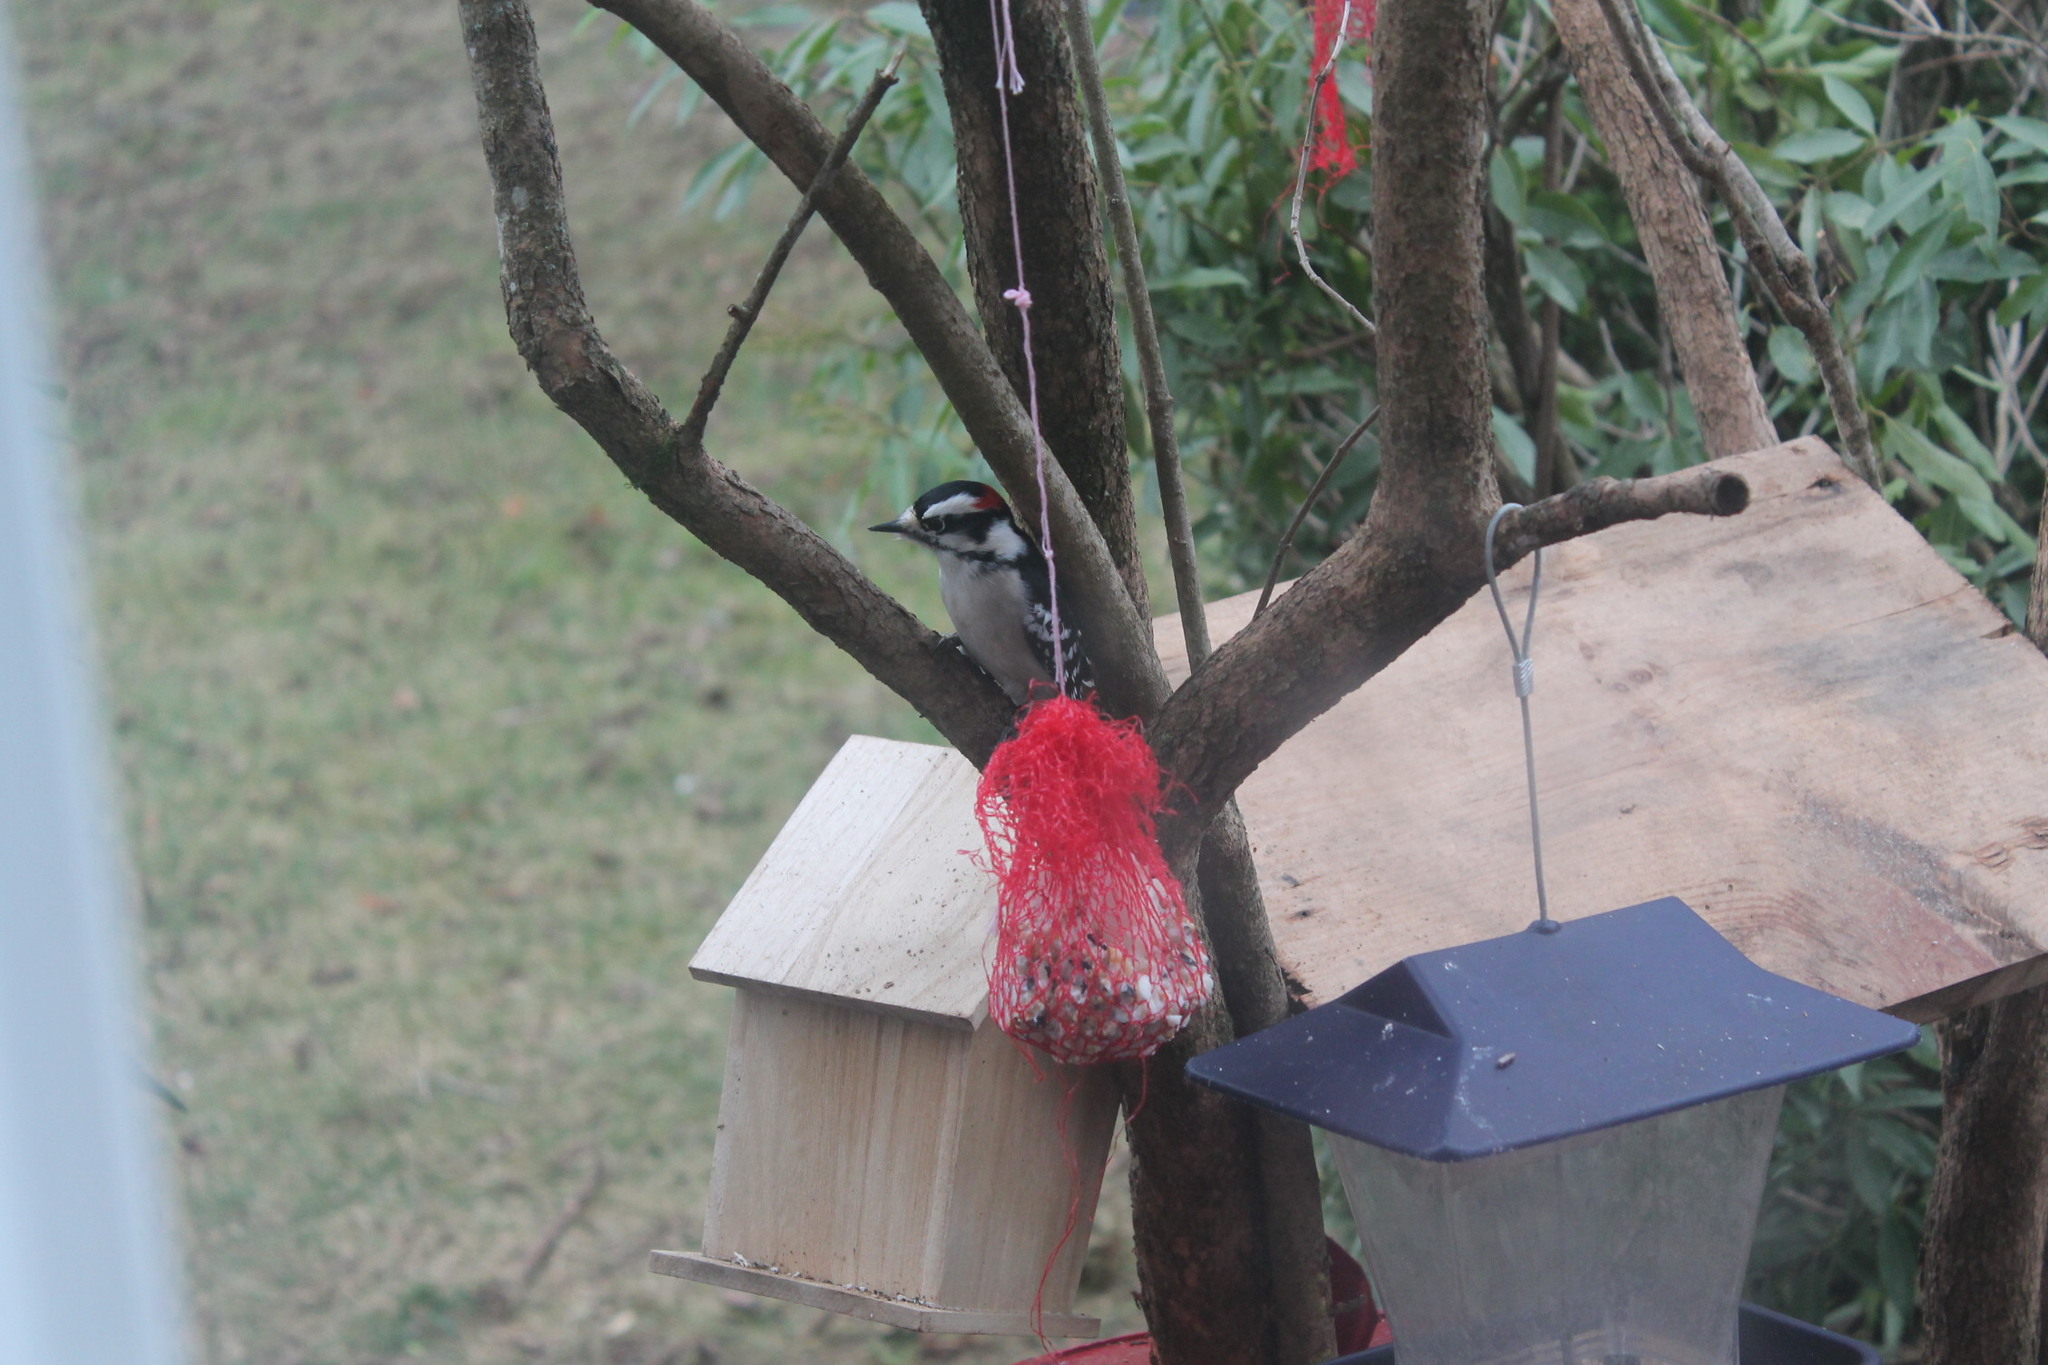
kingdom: Animalia
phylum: Chordata
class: Aves
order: Piciformes
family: Picidae
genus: Dryobates
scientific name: Dryobates pubescens
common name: Downy woodpecker
